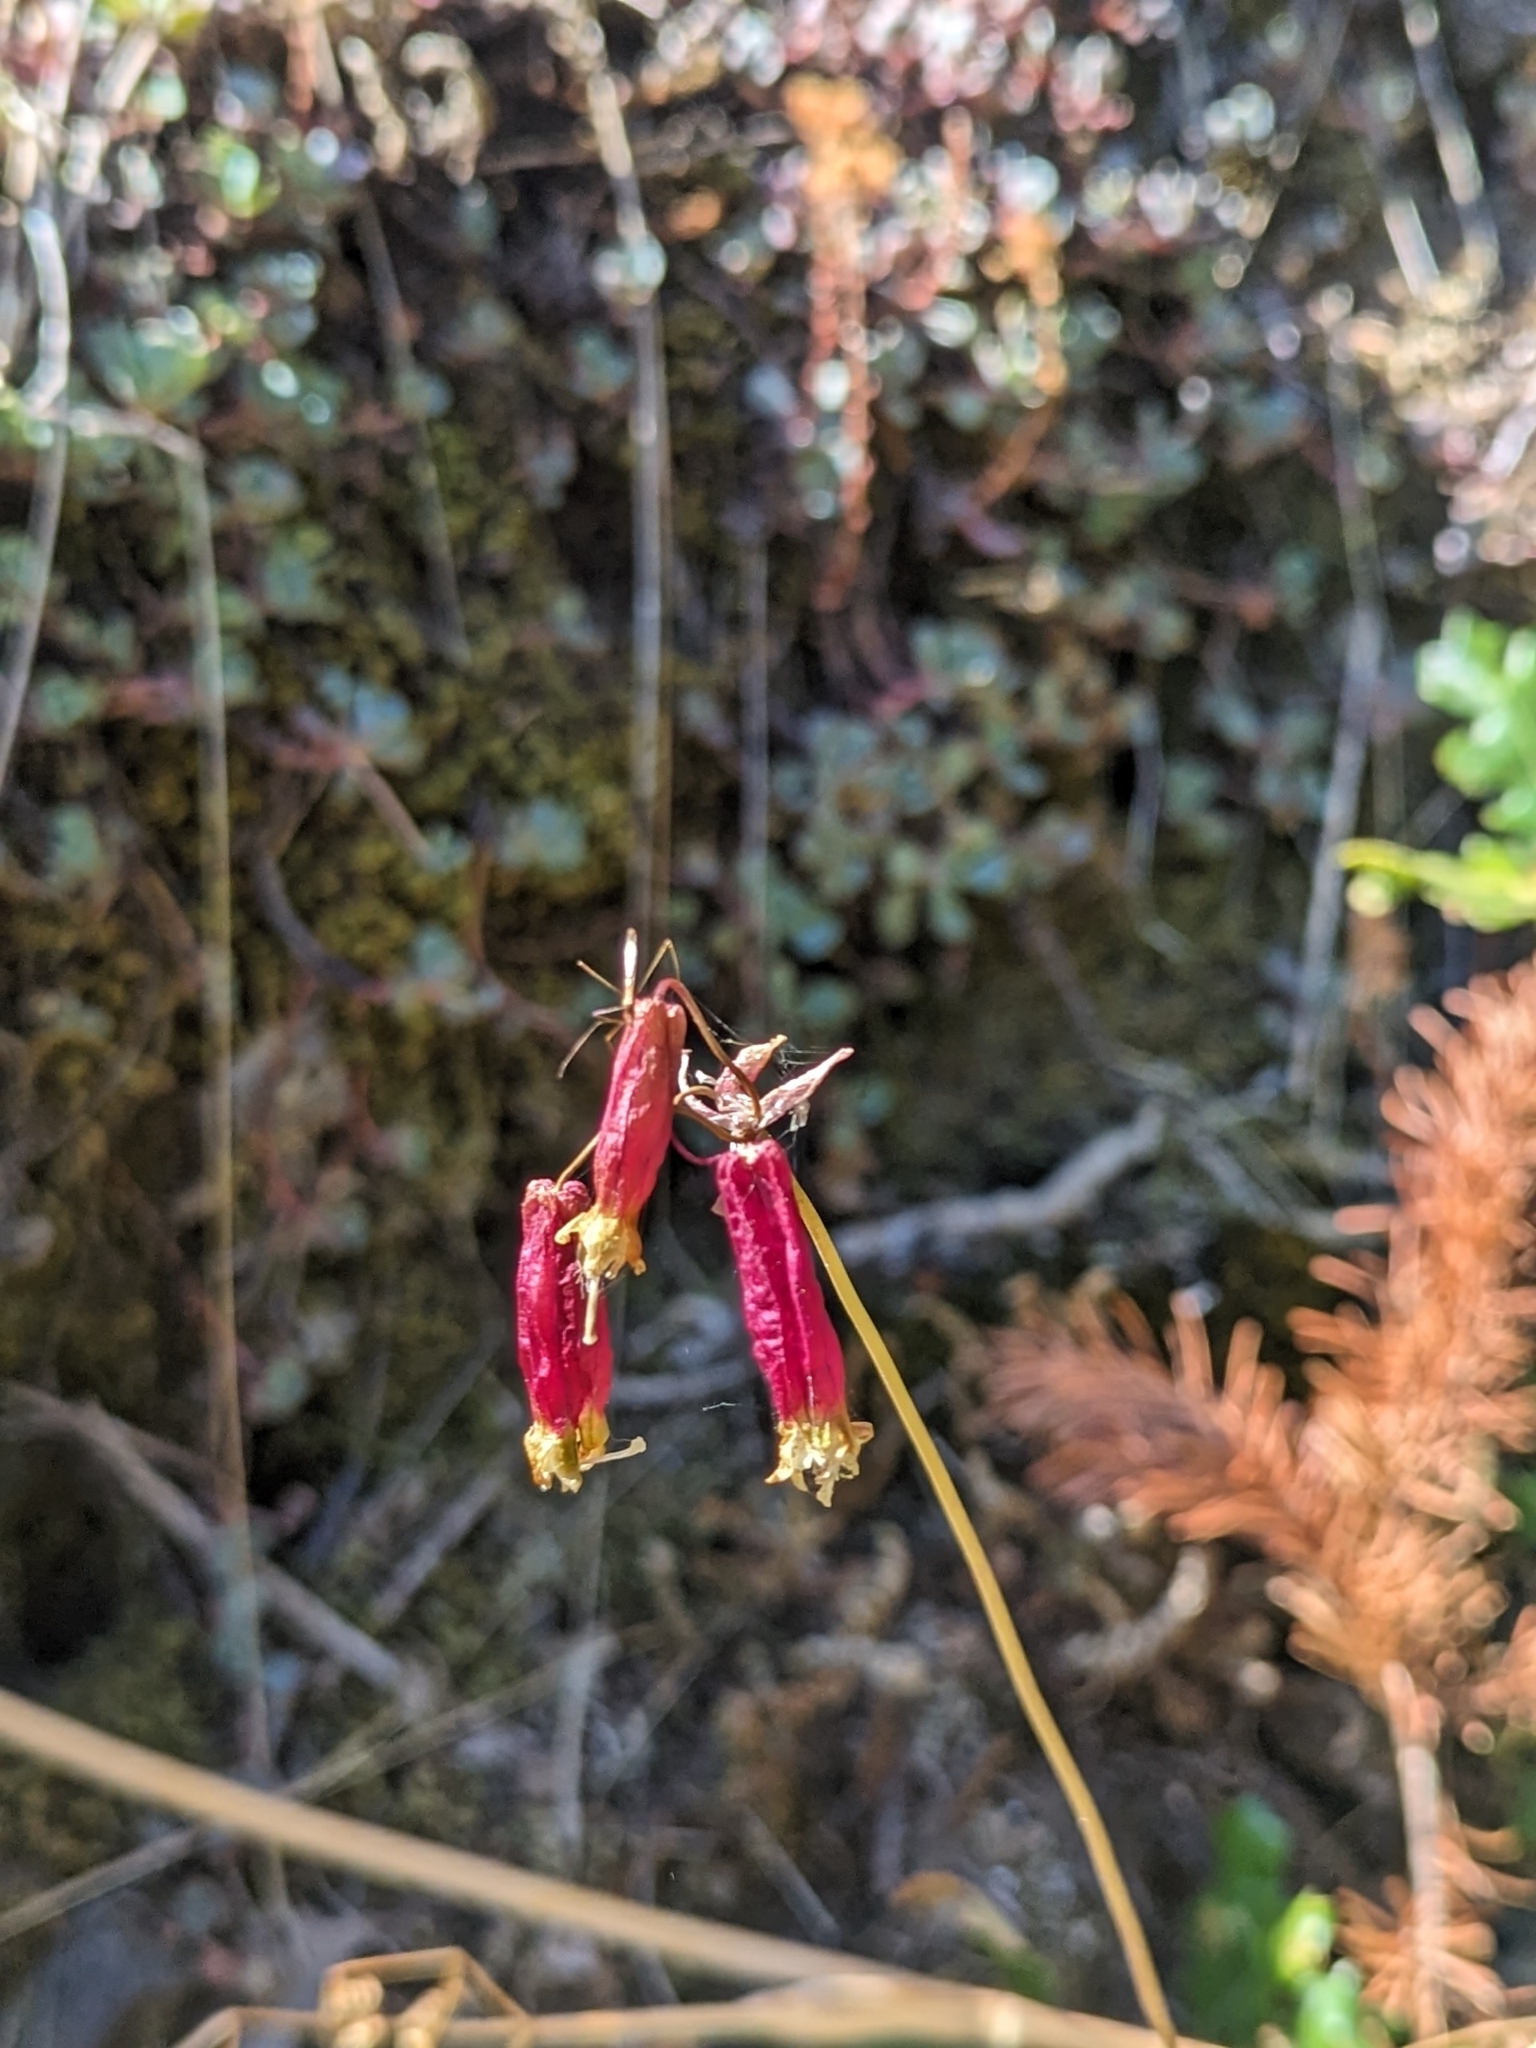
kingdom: Plantae
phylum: Tracheophyta
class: Liliopsida
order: Asparagales
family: Asparagaceae
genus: Dichelostemma
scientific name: Dichelostemma ida-maia
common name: Firecracker-flower
